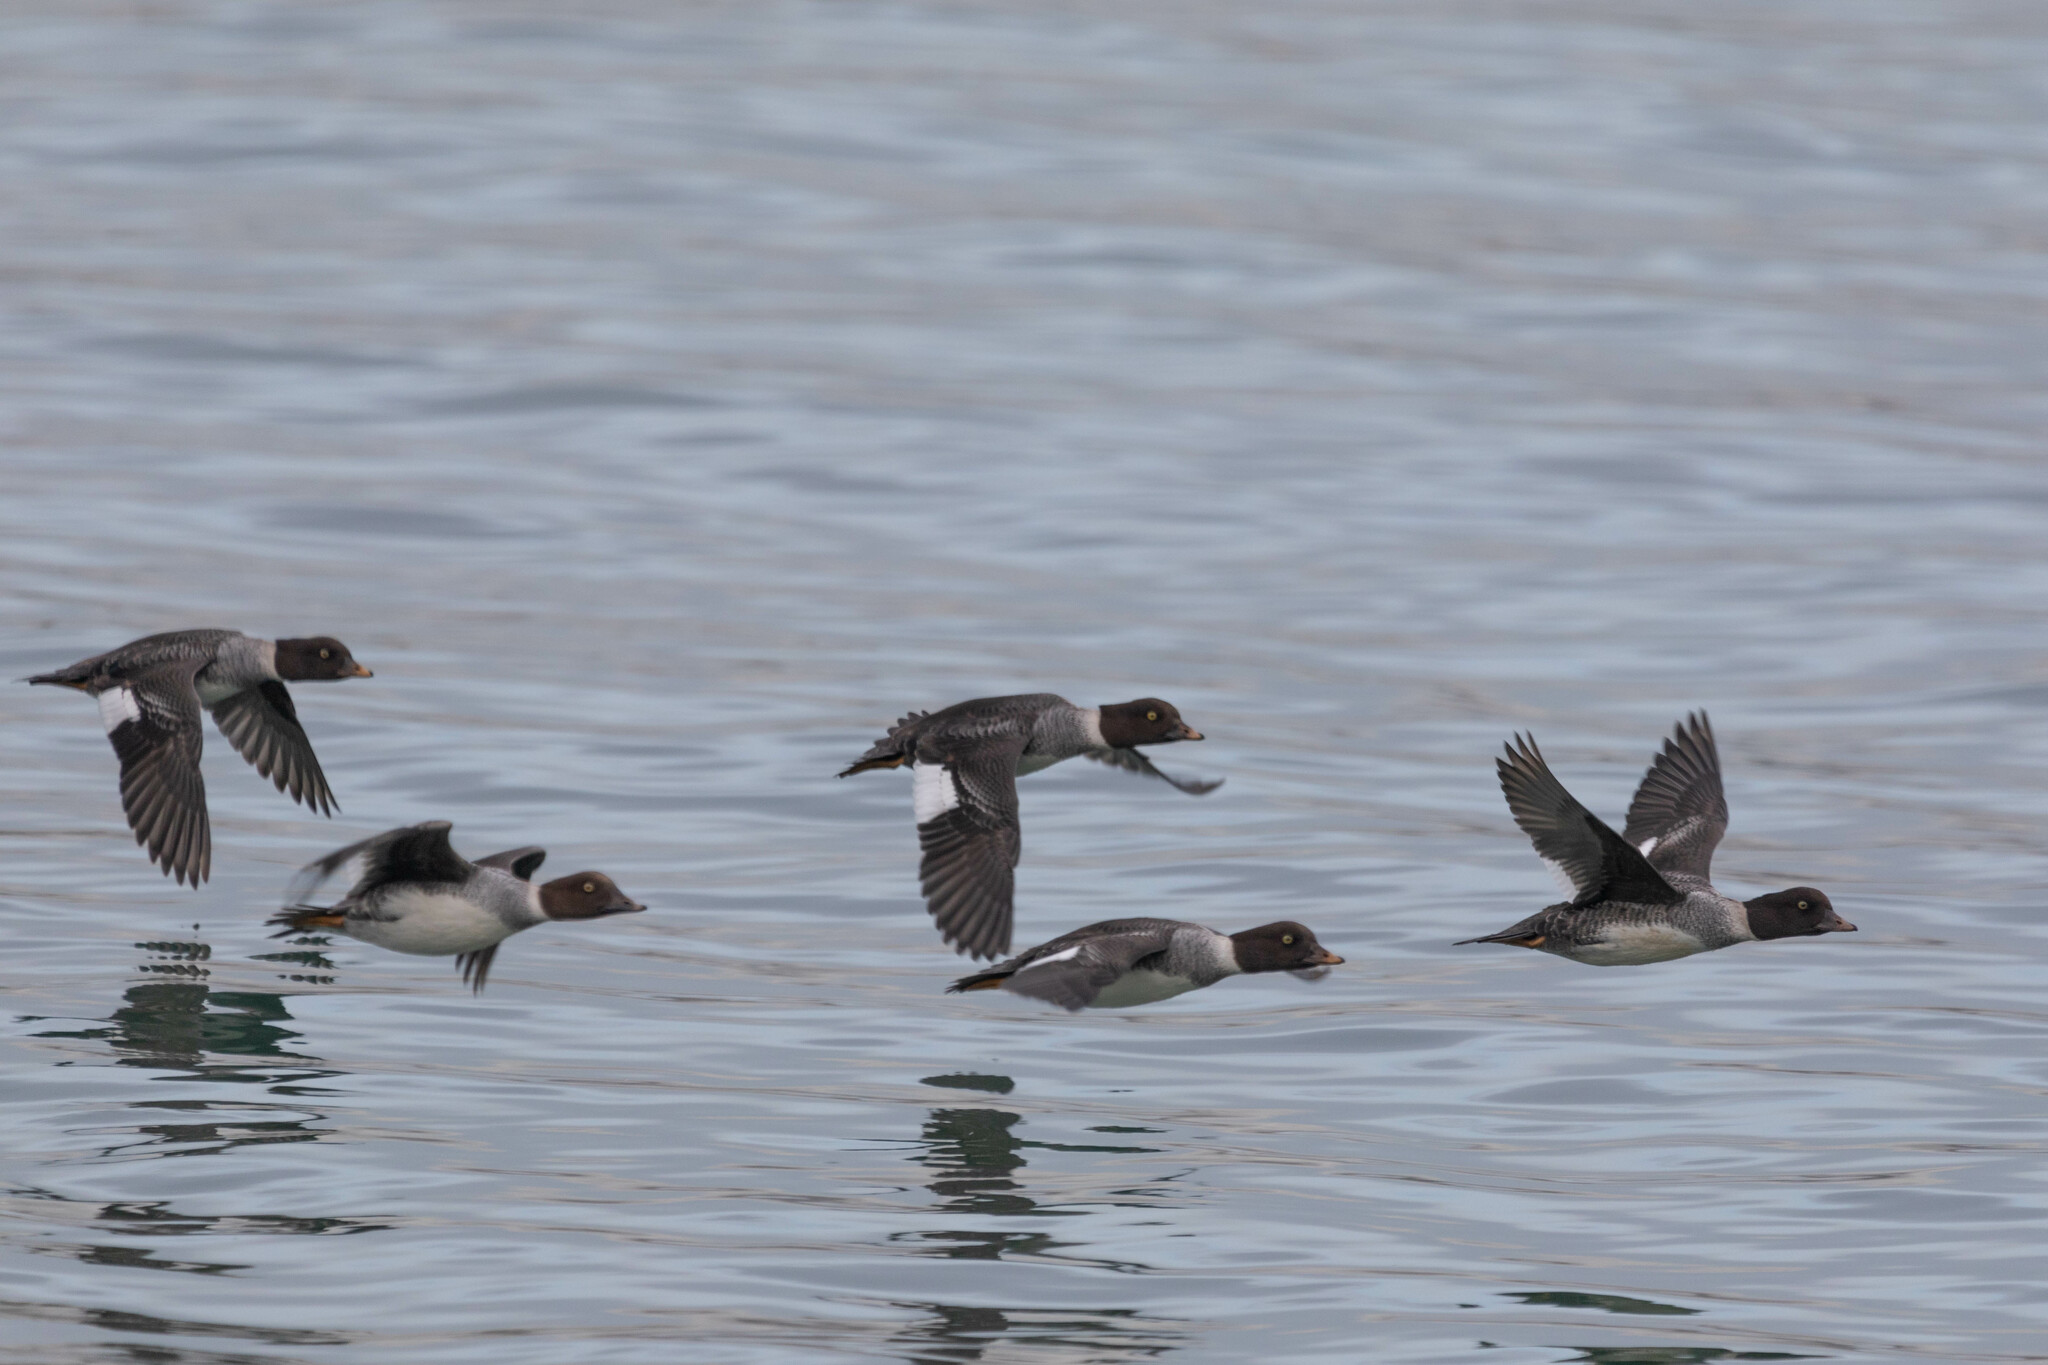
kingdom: Animalia
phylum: Chordata
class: Aves
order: Anseriformes
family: Anatidae
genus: Bucephala
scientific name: Bucephala clangula
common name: Common goldeneye
